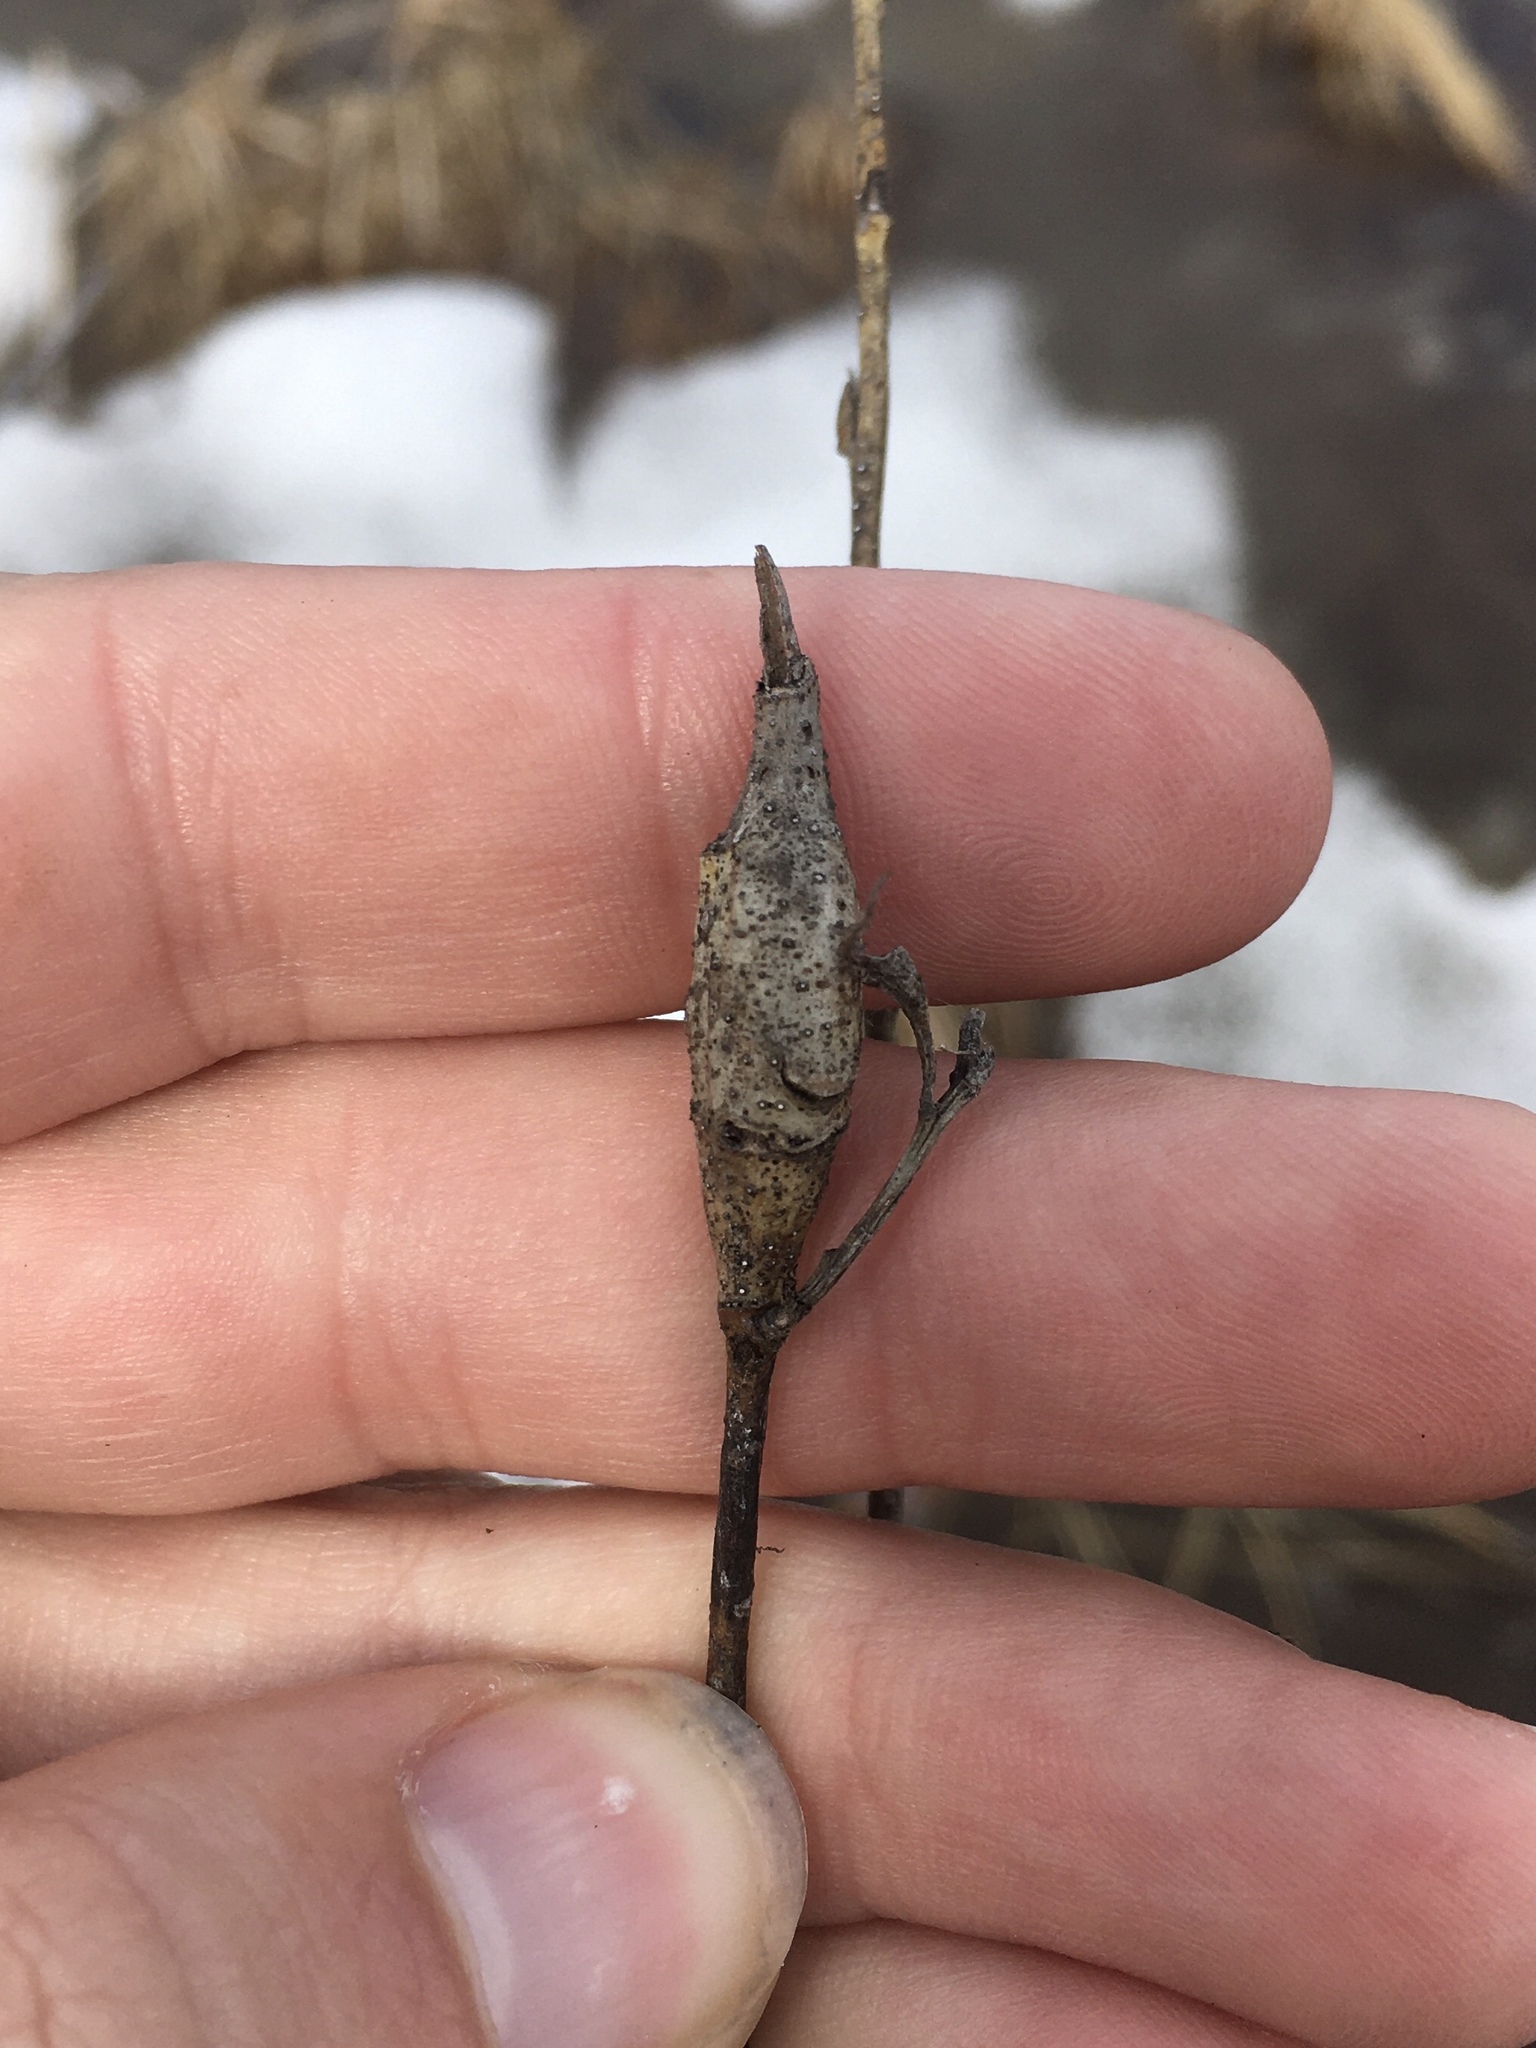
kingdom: Animalia
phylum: Arthropoda
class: Insecta
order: Diptera
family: Cecidomyiidae
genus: Thecodiplosis
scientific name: Thecodiplosis pinirigidae
